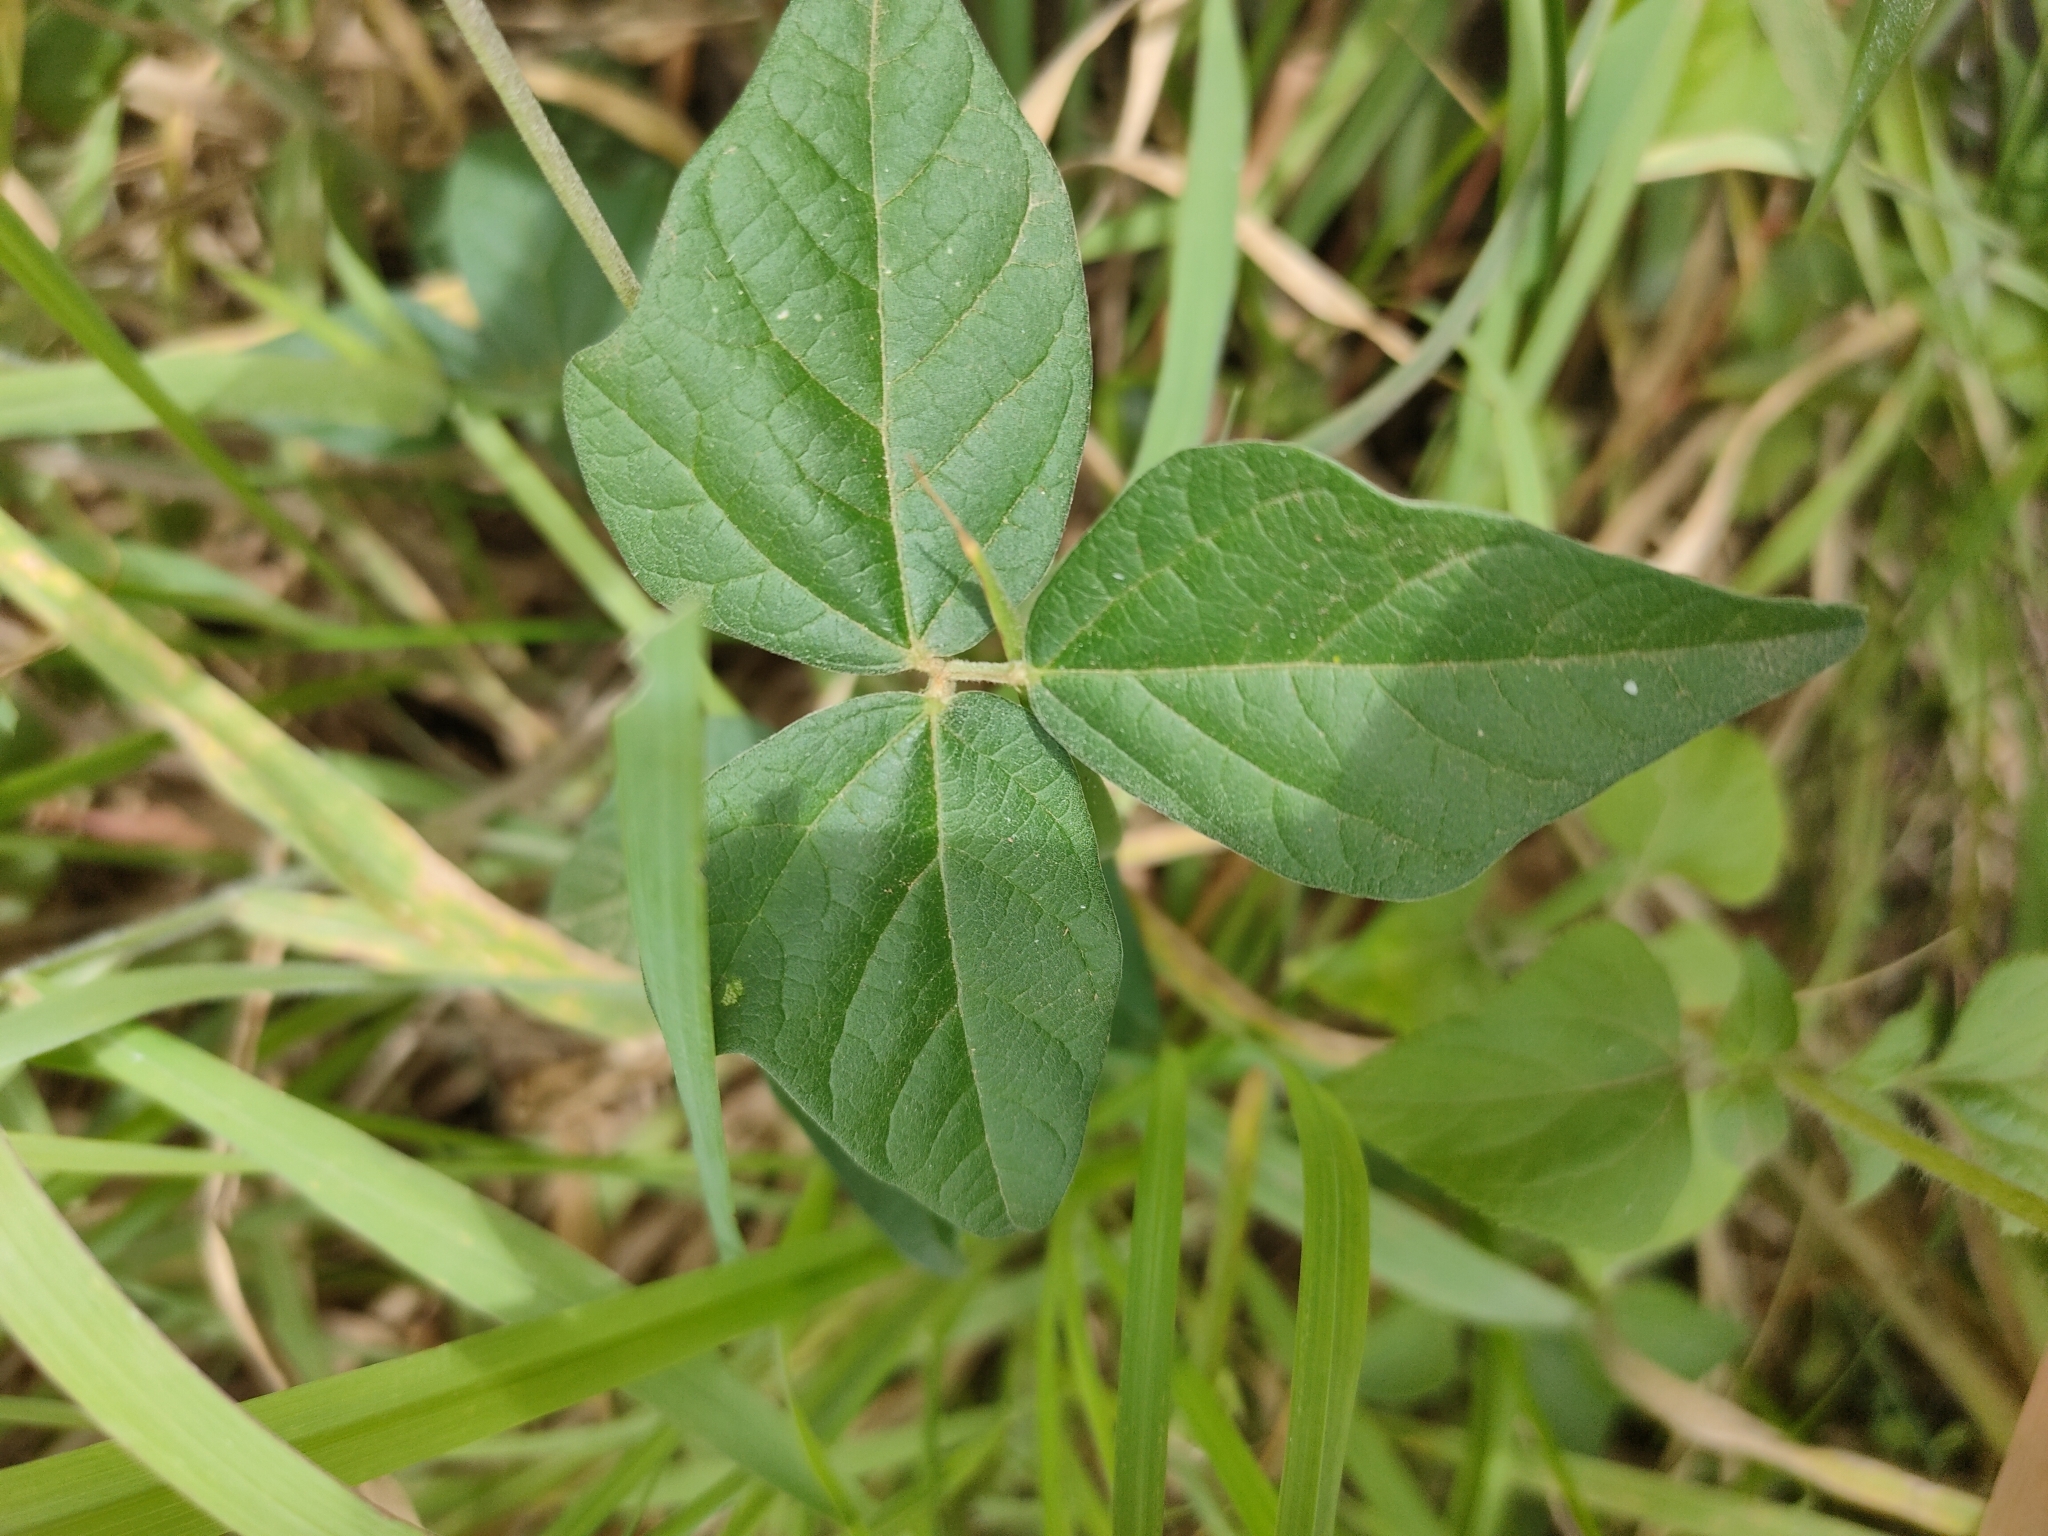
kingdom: Plantae
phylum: Tracheophyta
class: Magnoliopsida
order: Fabales
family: Fabaceae
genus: Macroptilium
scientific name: Macroptilium atropurpureum
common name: Purple bushbean
